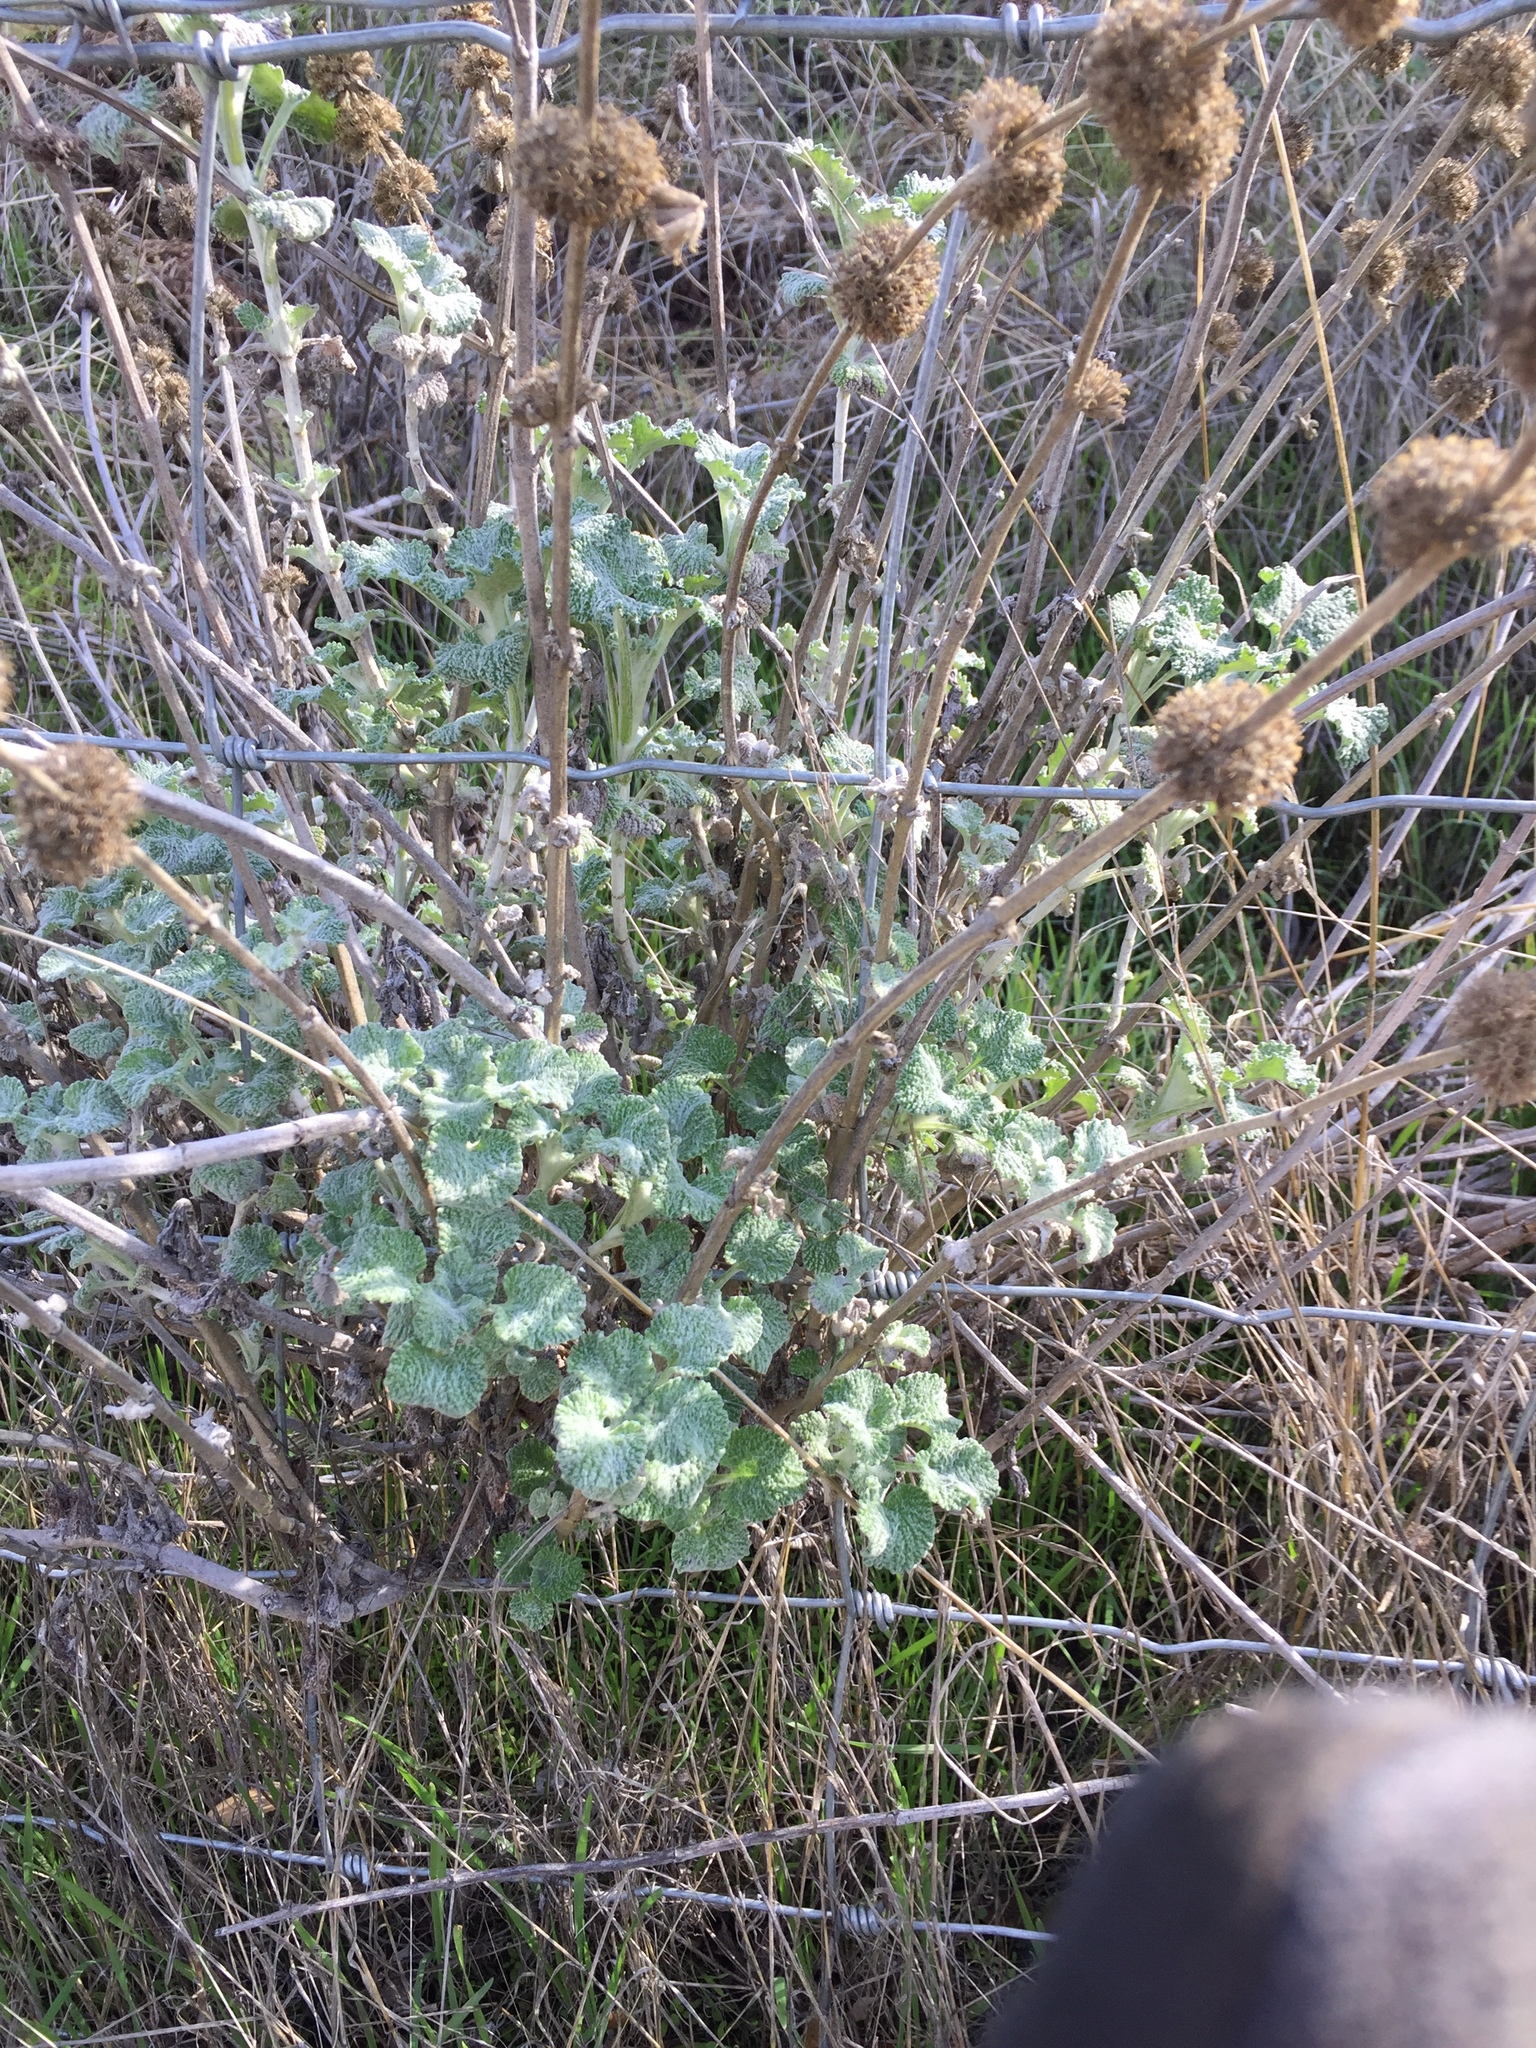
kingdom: Plantae
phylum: Tracheophyta
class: Magnoliopsida
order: Lamiales
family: Lamiaceae
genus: Marrubium
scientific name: Marrubium vulgare
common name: Horehound
